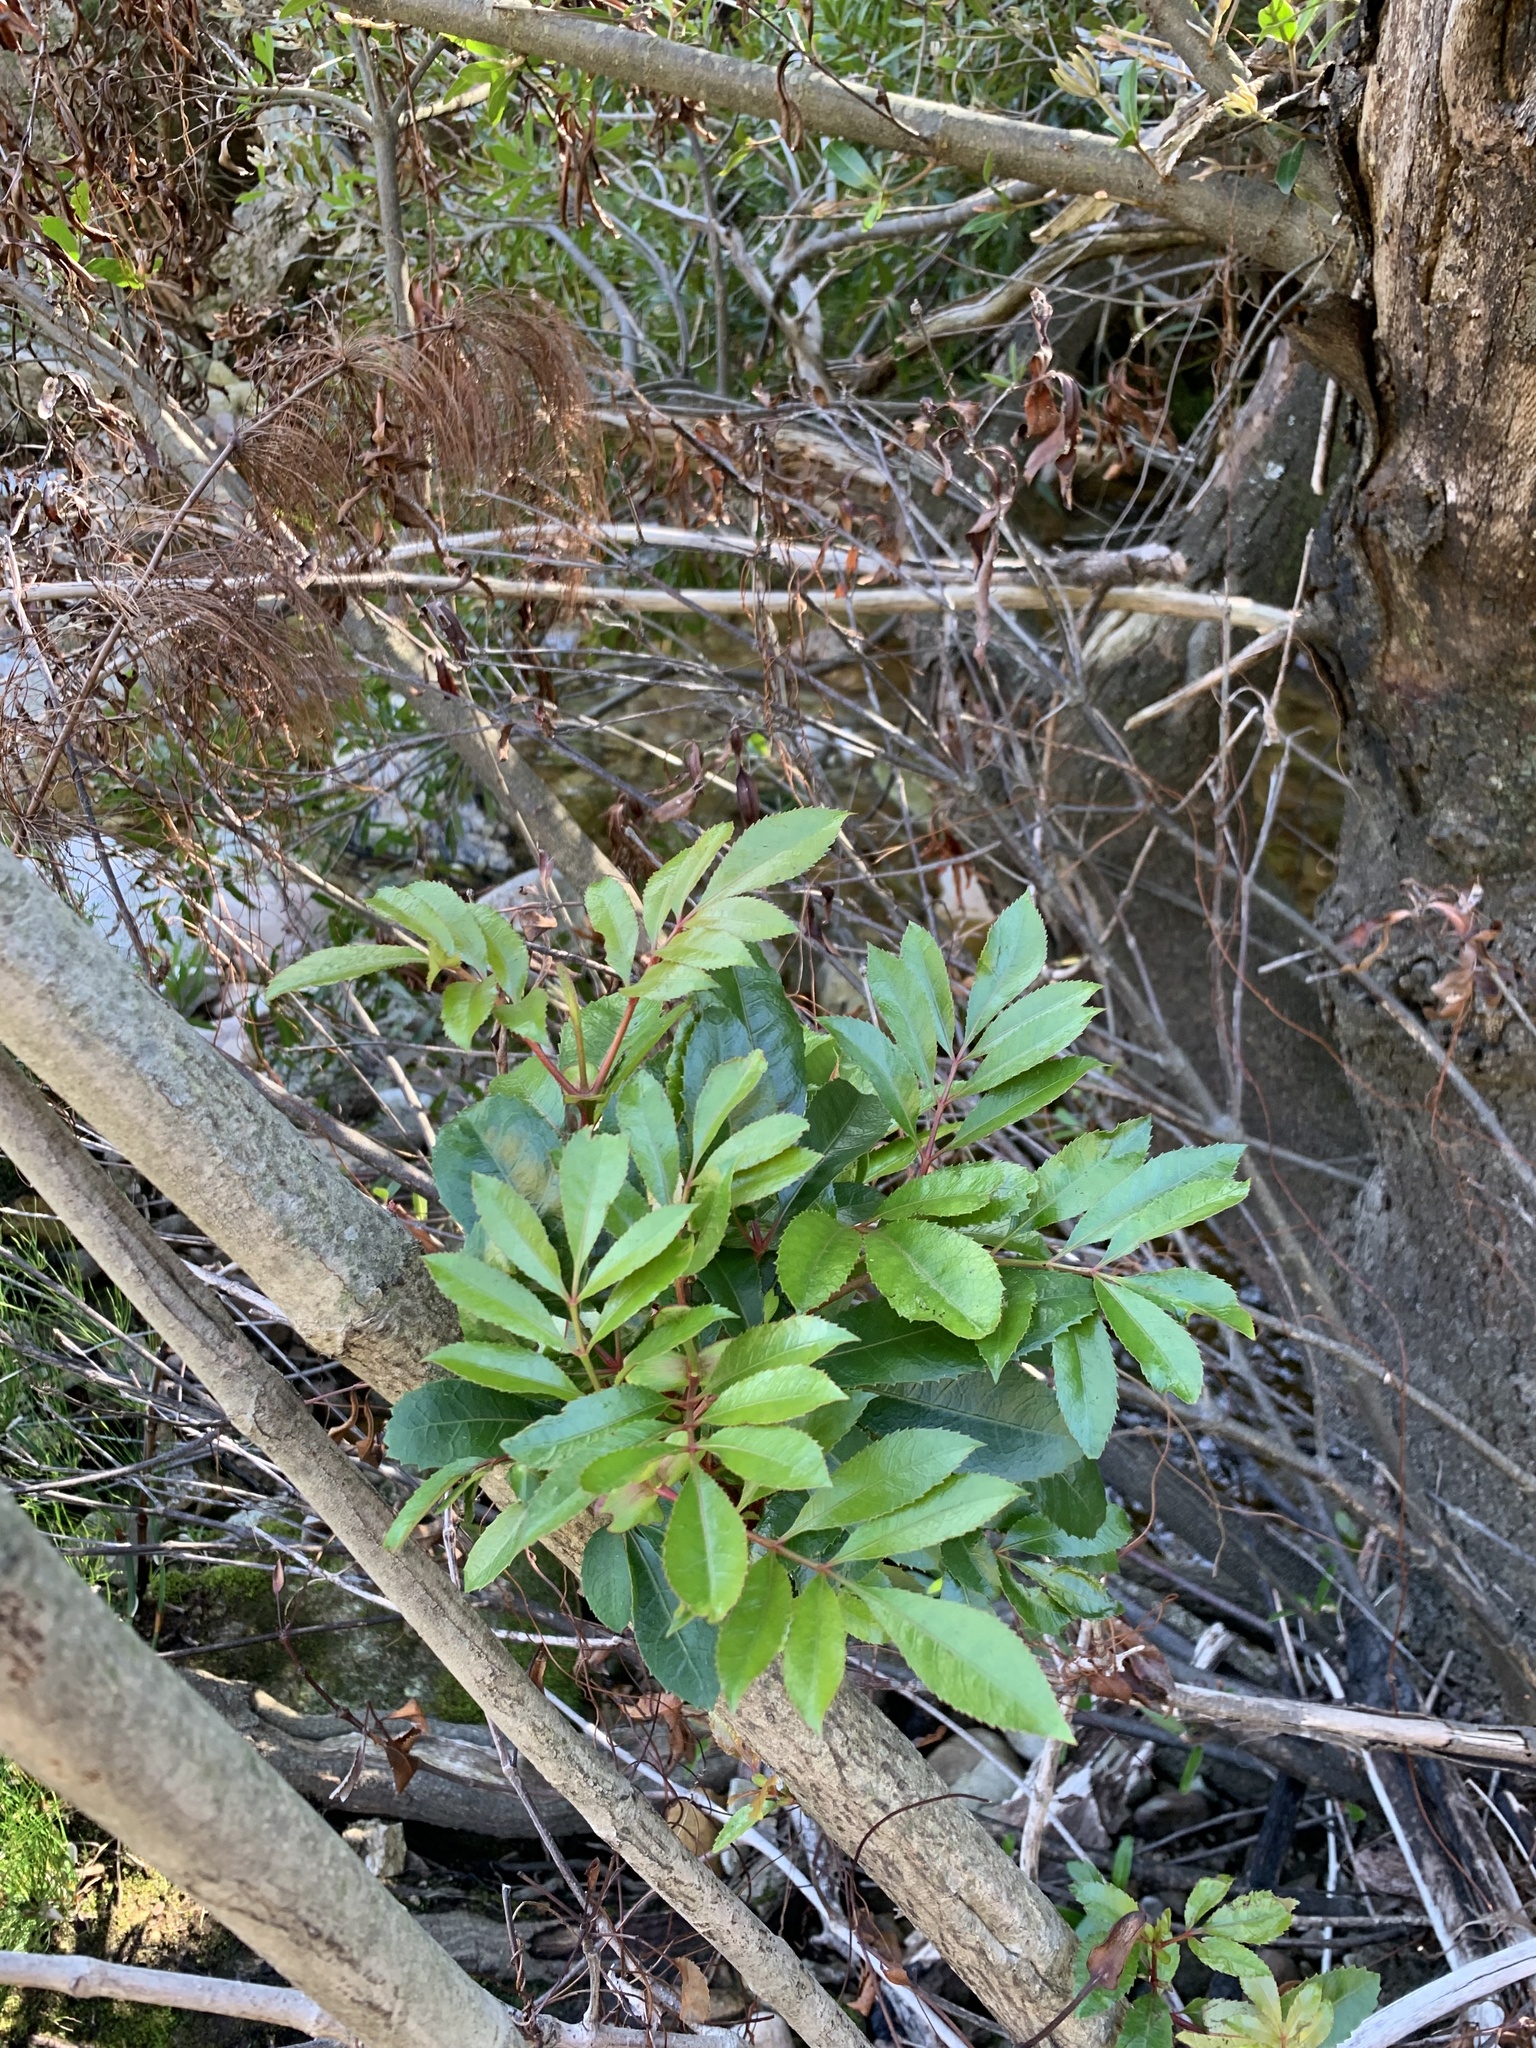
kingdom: Plantae
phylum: Tracheophyta
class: Magnoliopsida
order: Oxalidales
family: Cunoniaceae
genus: Cunonia
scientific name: Cunonia capensis
